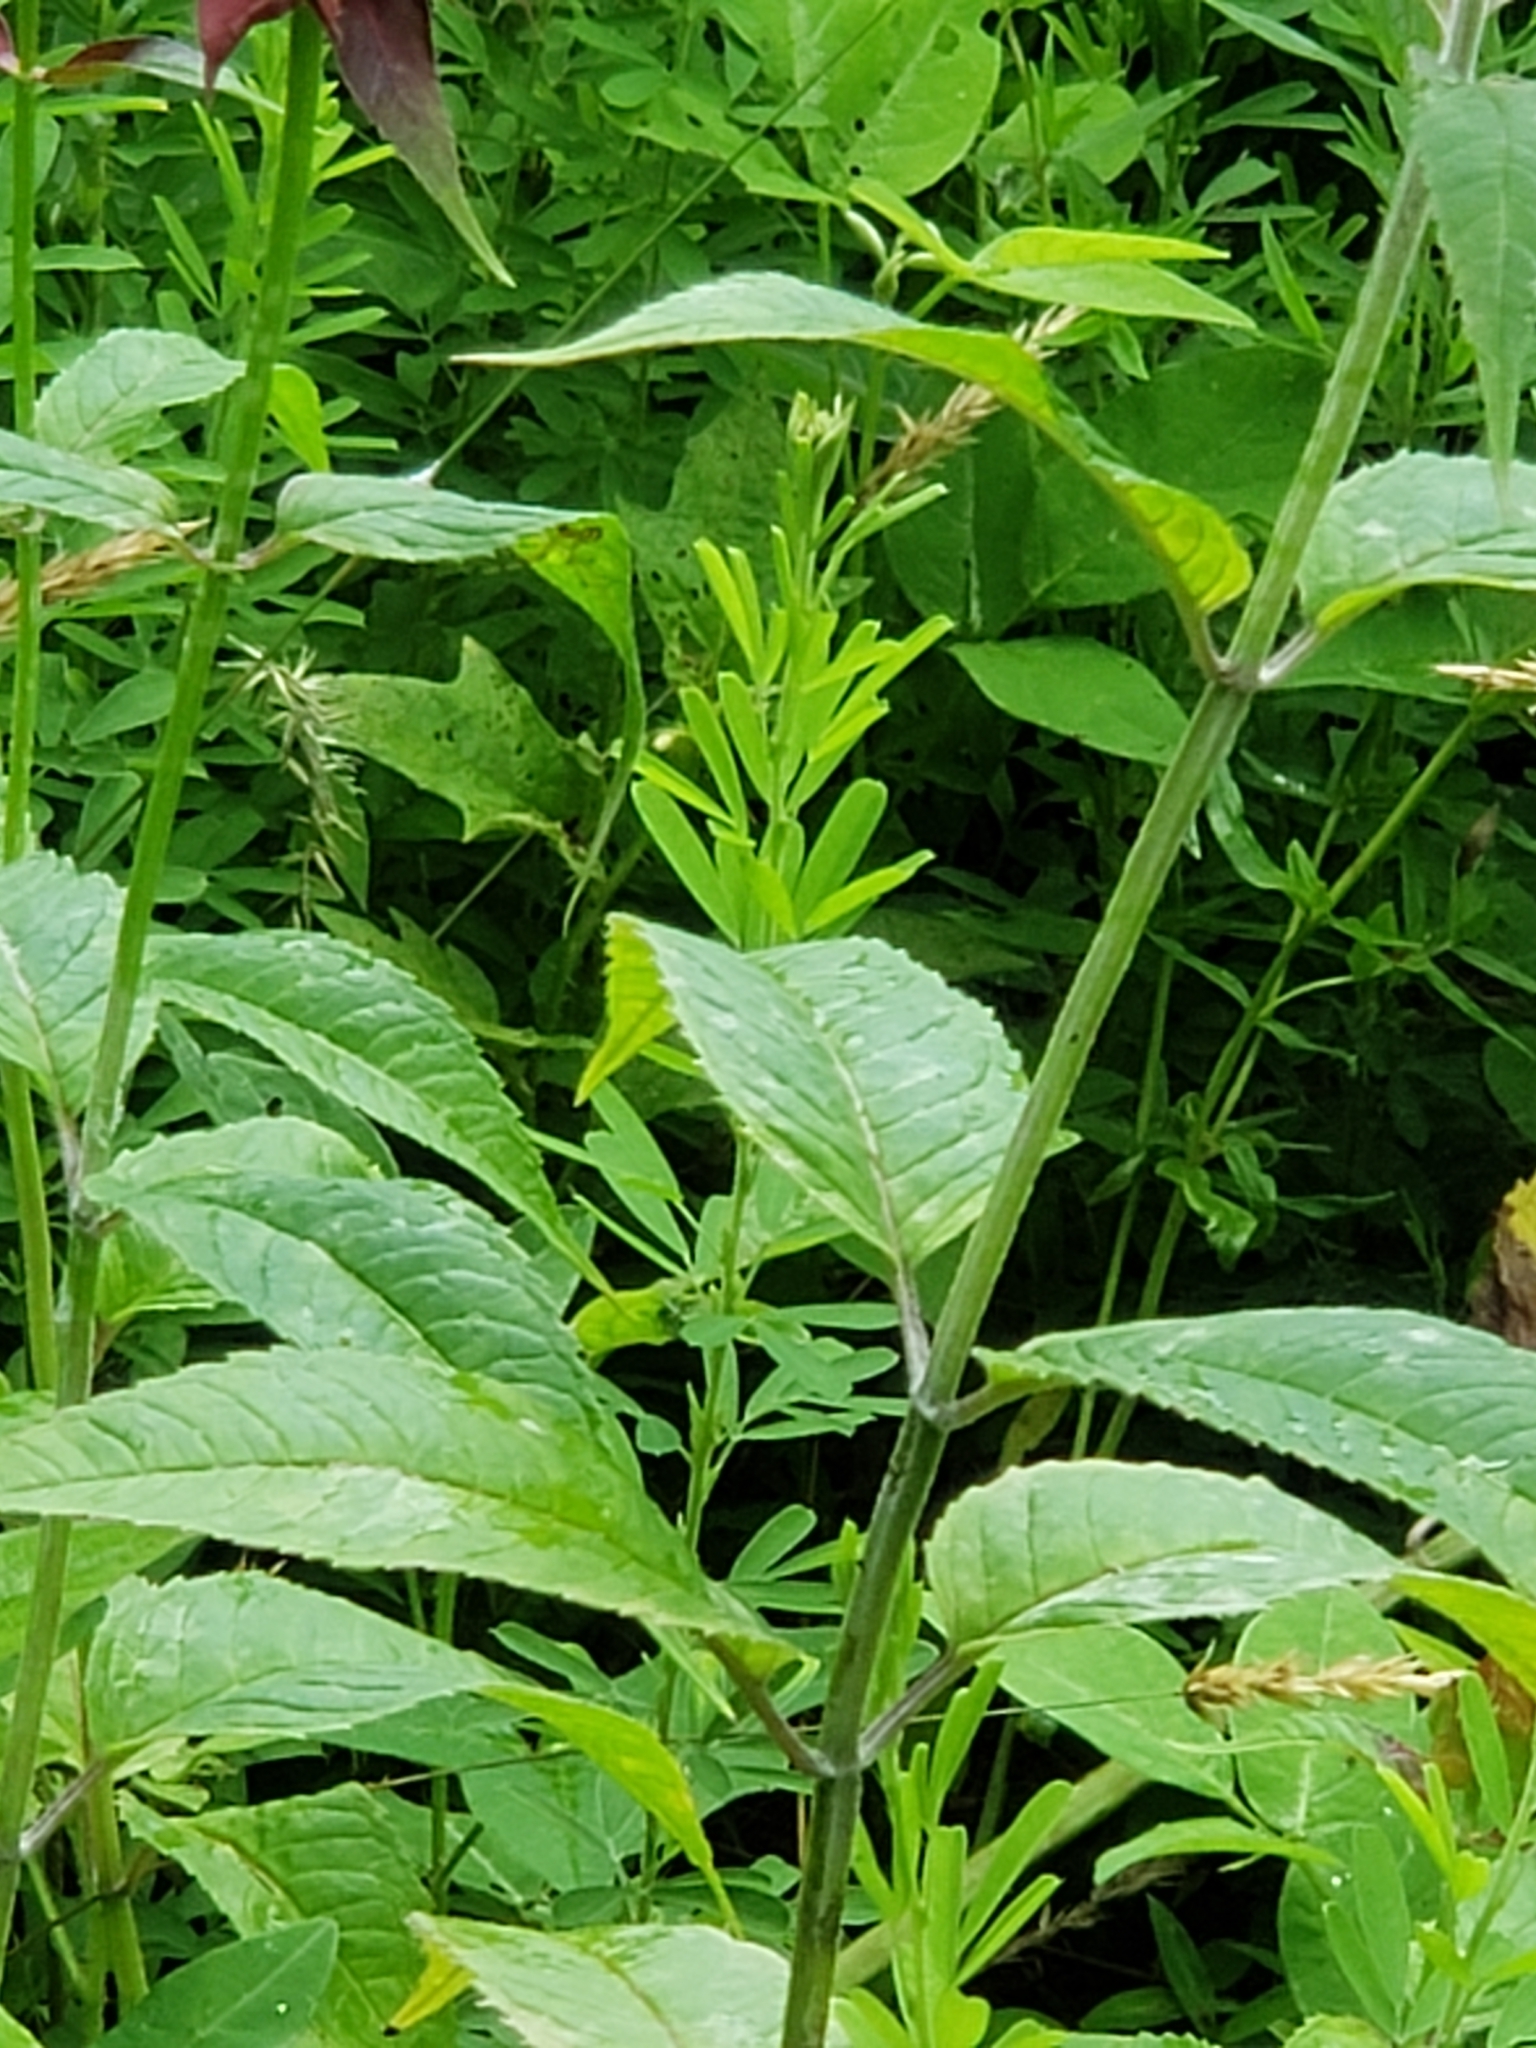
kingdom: Plantae
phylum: Tracheophyta
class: Magnoliopsida
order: Lamiales
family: Lamiaceae
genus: Monarda
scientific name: Monarda didyma
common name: Beebalm
